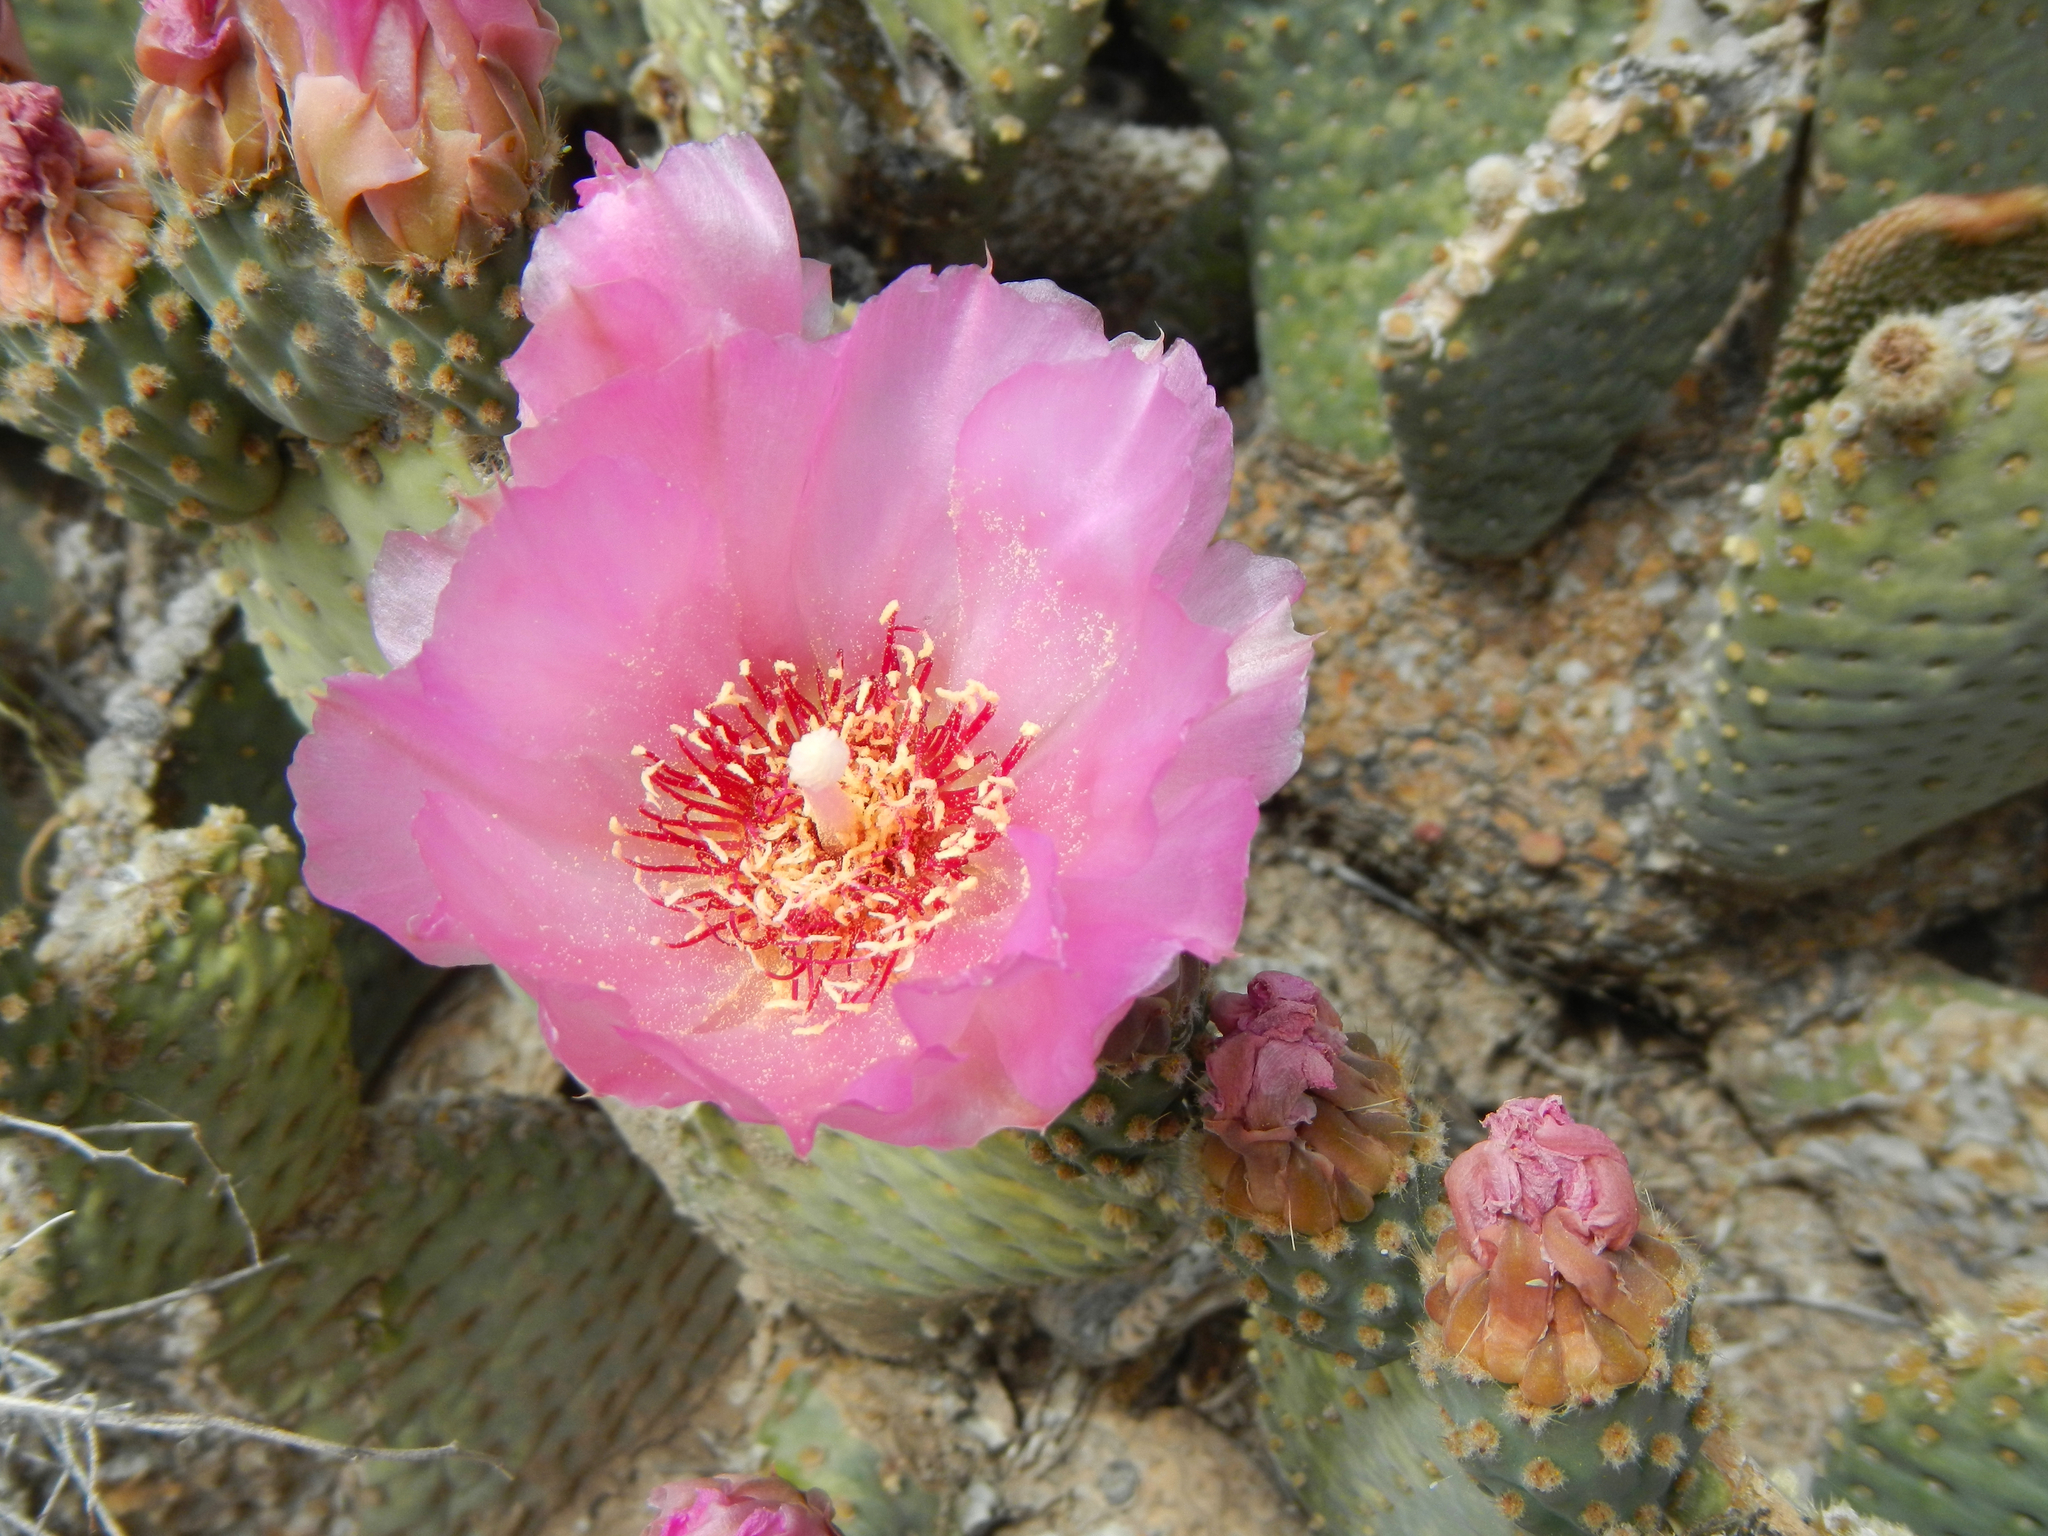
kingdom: Plantae
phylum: Tracheophyta
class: Magnoliopsida
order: Caryophyllales
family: Cactaceae
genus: Opuntia
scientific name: Opuntia basilaris
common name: Beavertail prickly-pear
